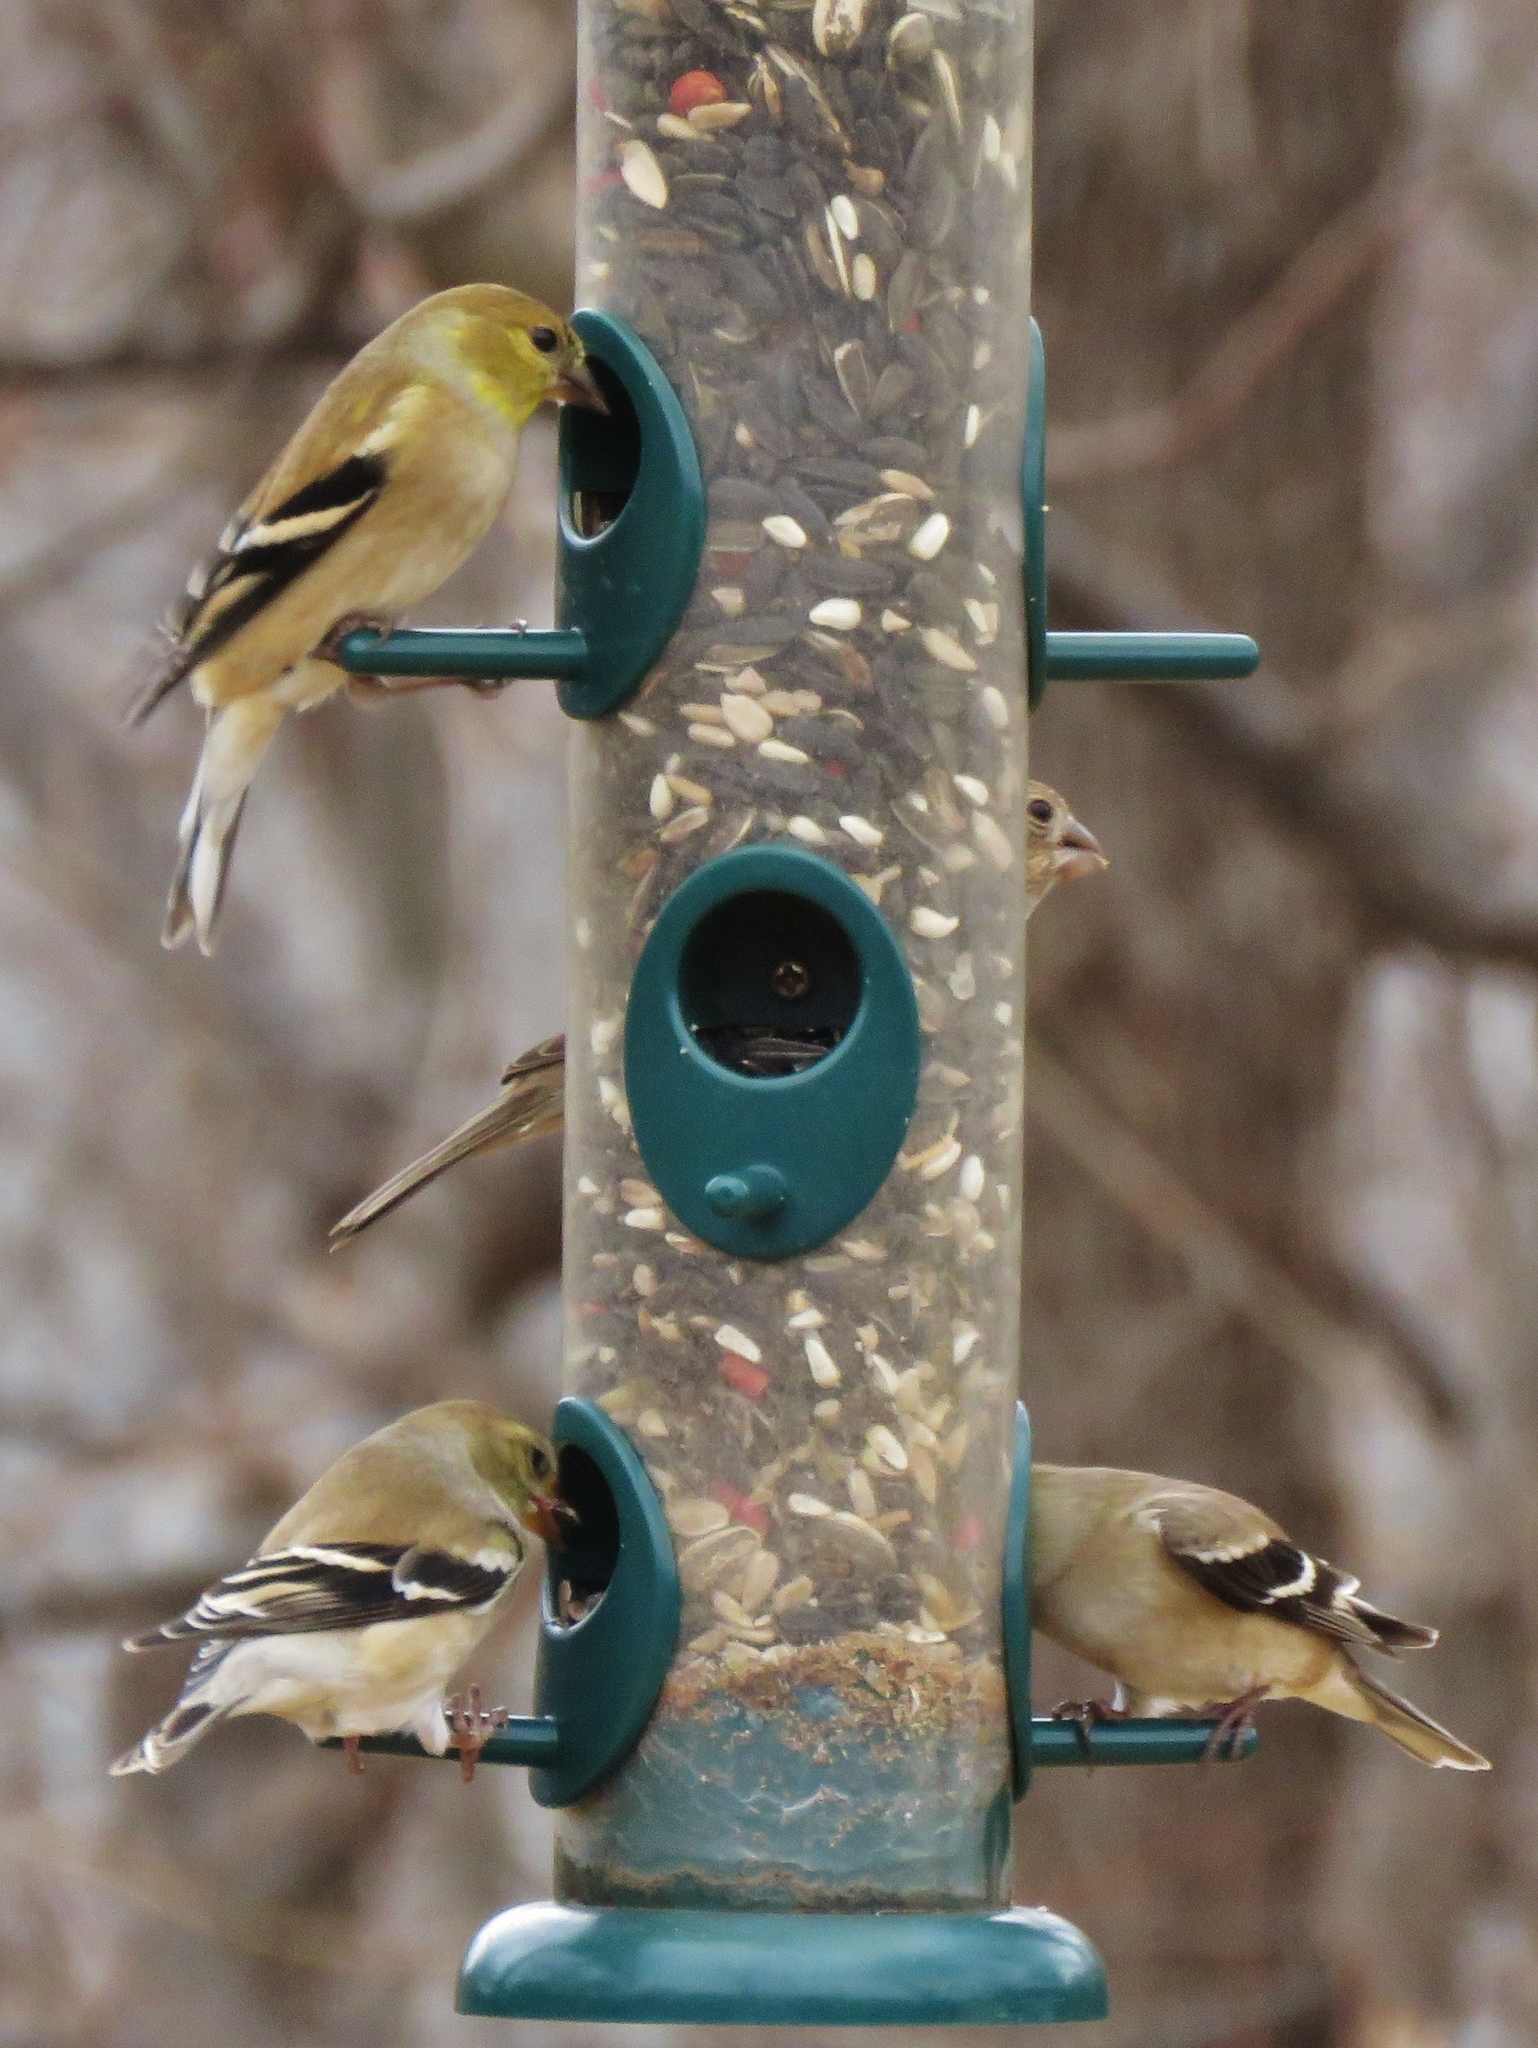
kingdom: Animalia
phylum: Chordata
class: Aves
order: Passeriformes
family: Fringillidae
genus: Spinus
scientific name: Spinus tristis
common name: American goldfinch
